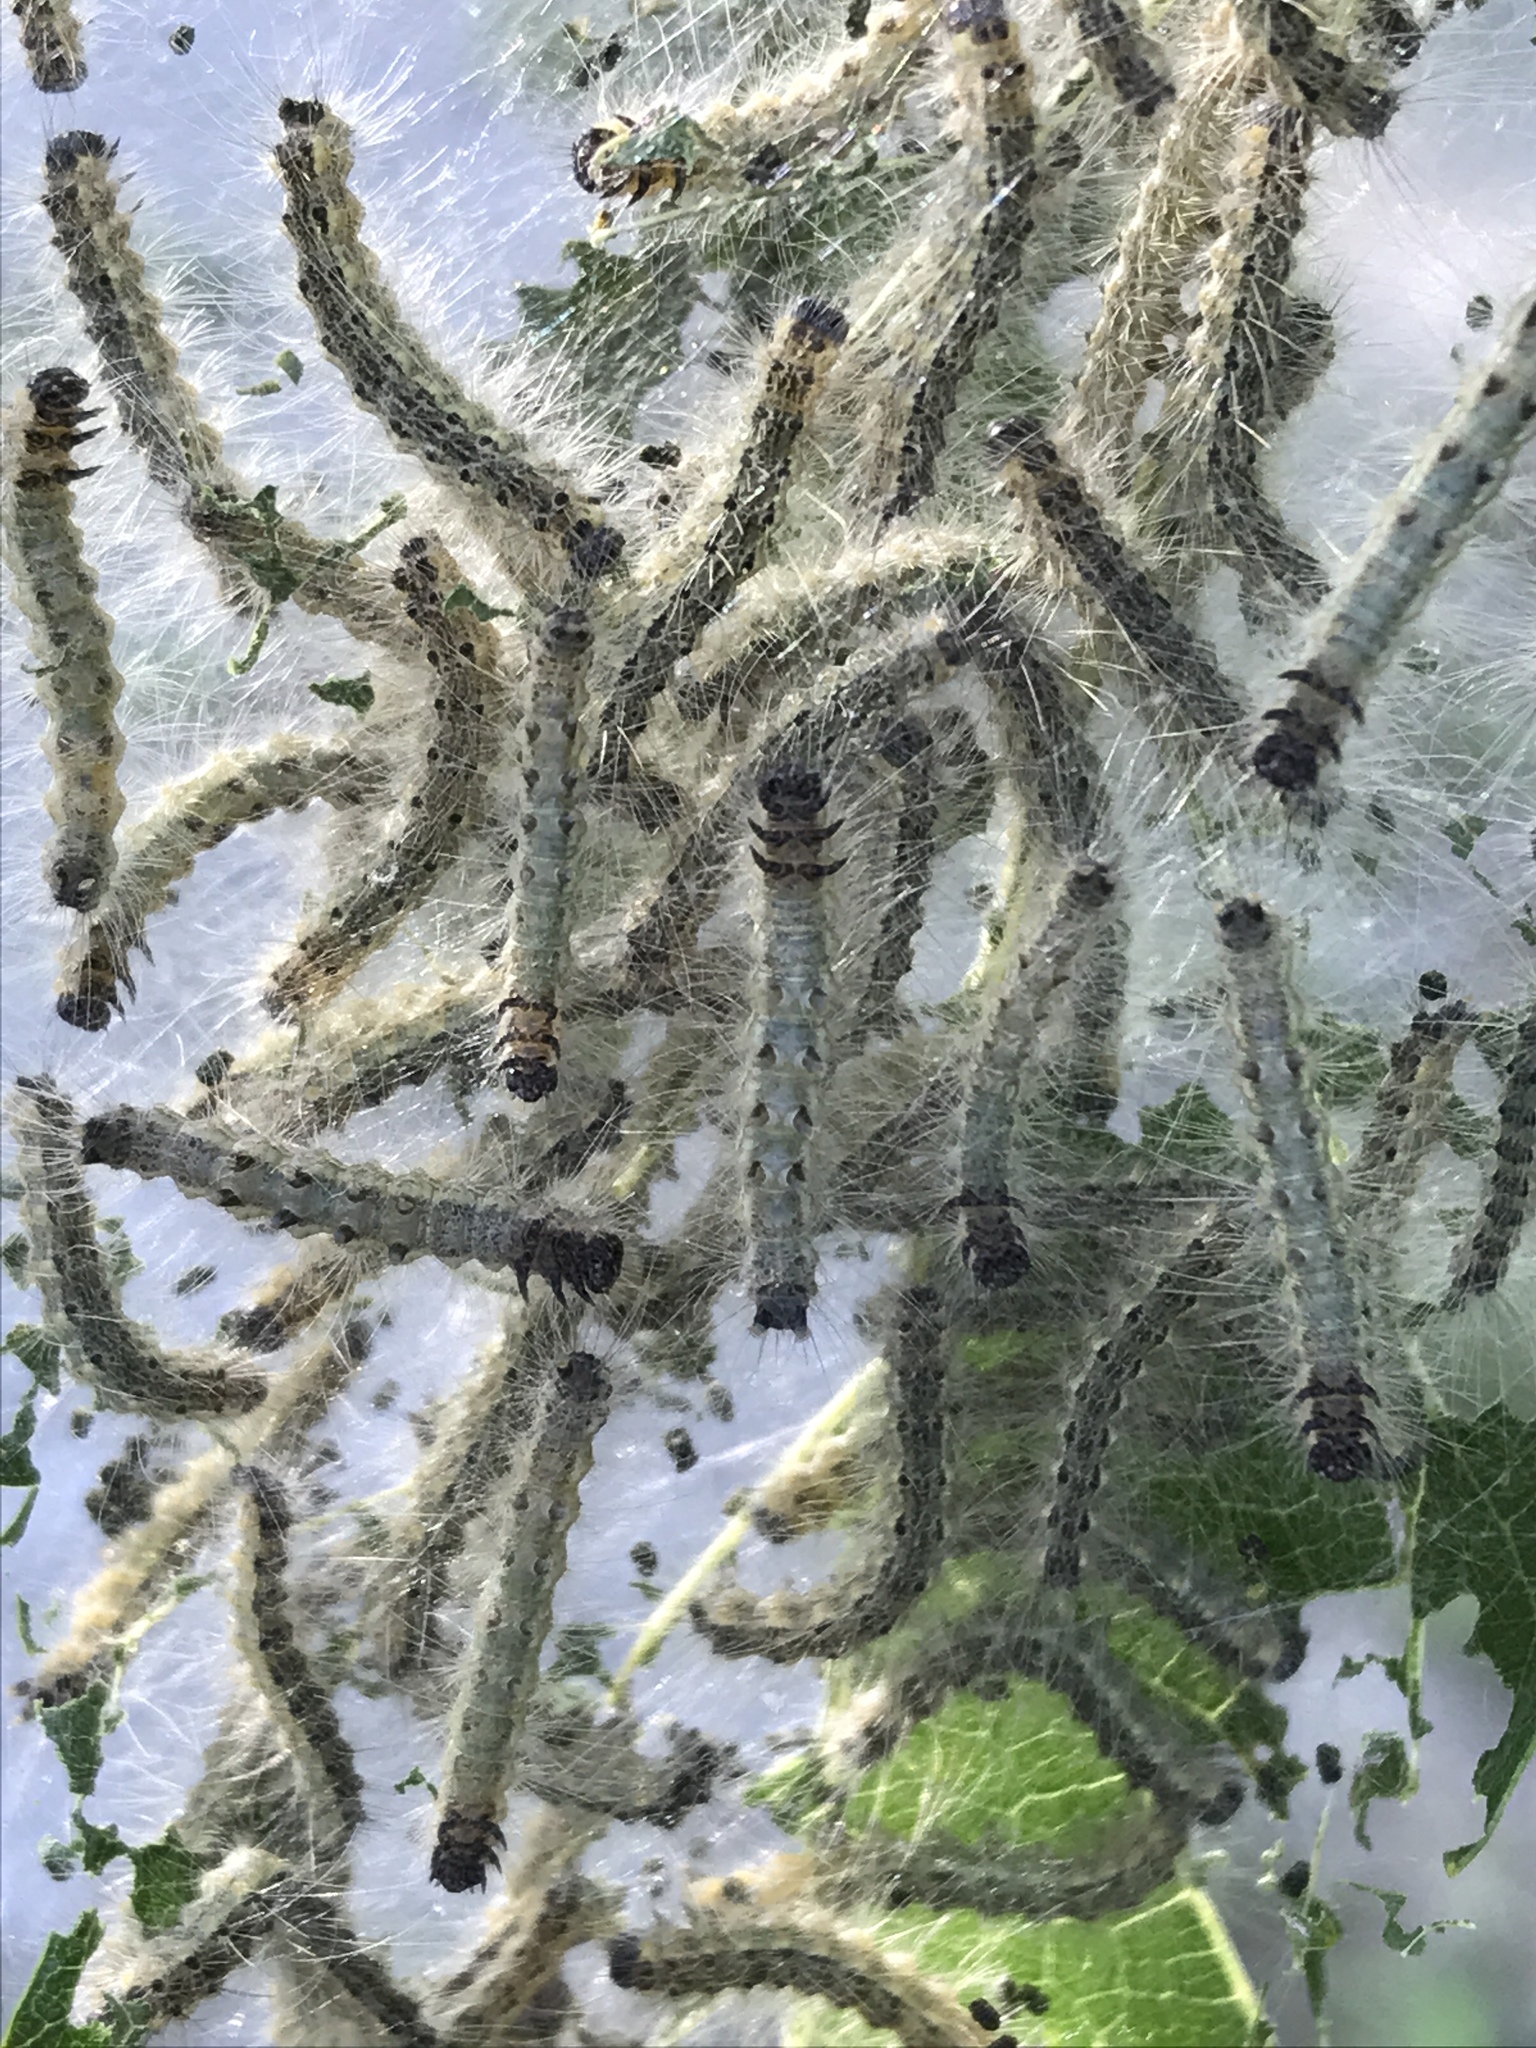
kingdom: Animalia
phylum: Arthropoda
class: Insecta
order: Lepidoptera
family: Erebidae
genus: Hyphantria
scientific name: Hyphantria cunea
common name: American white moth
